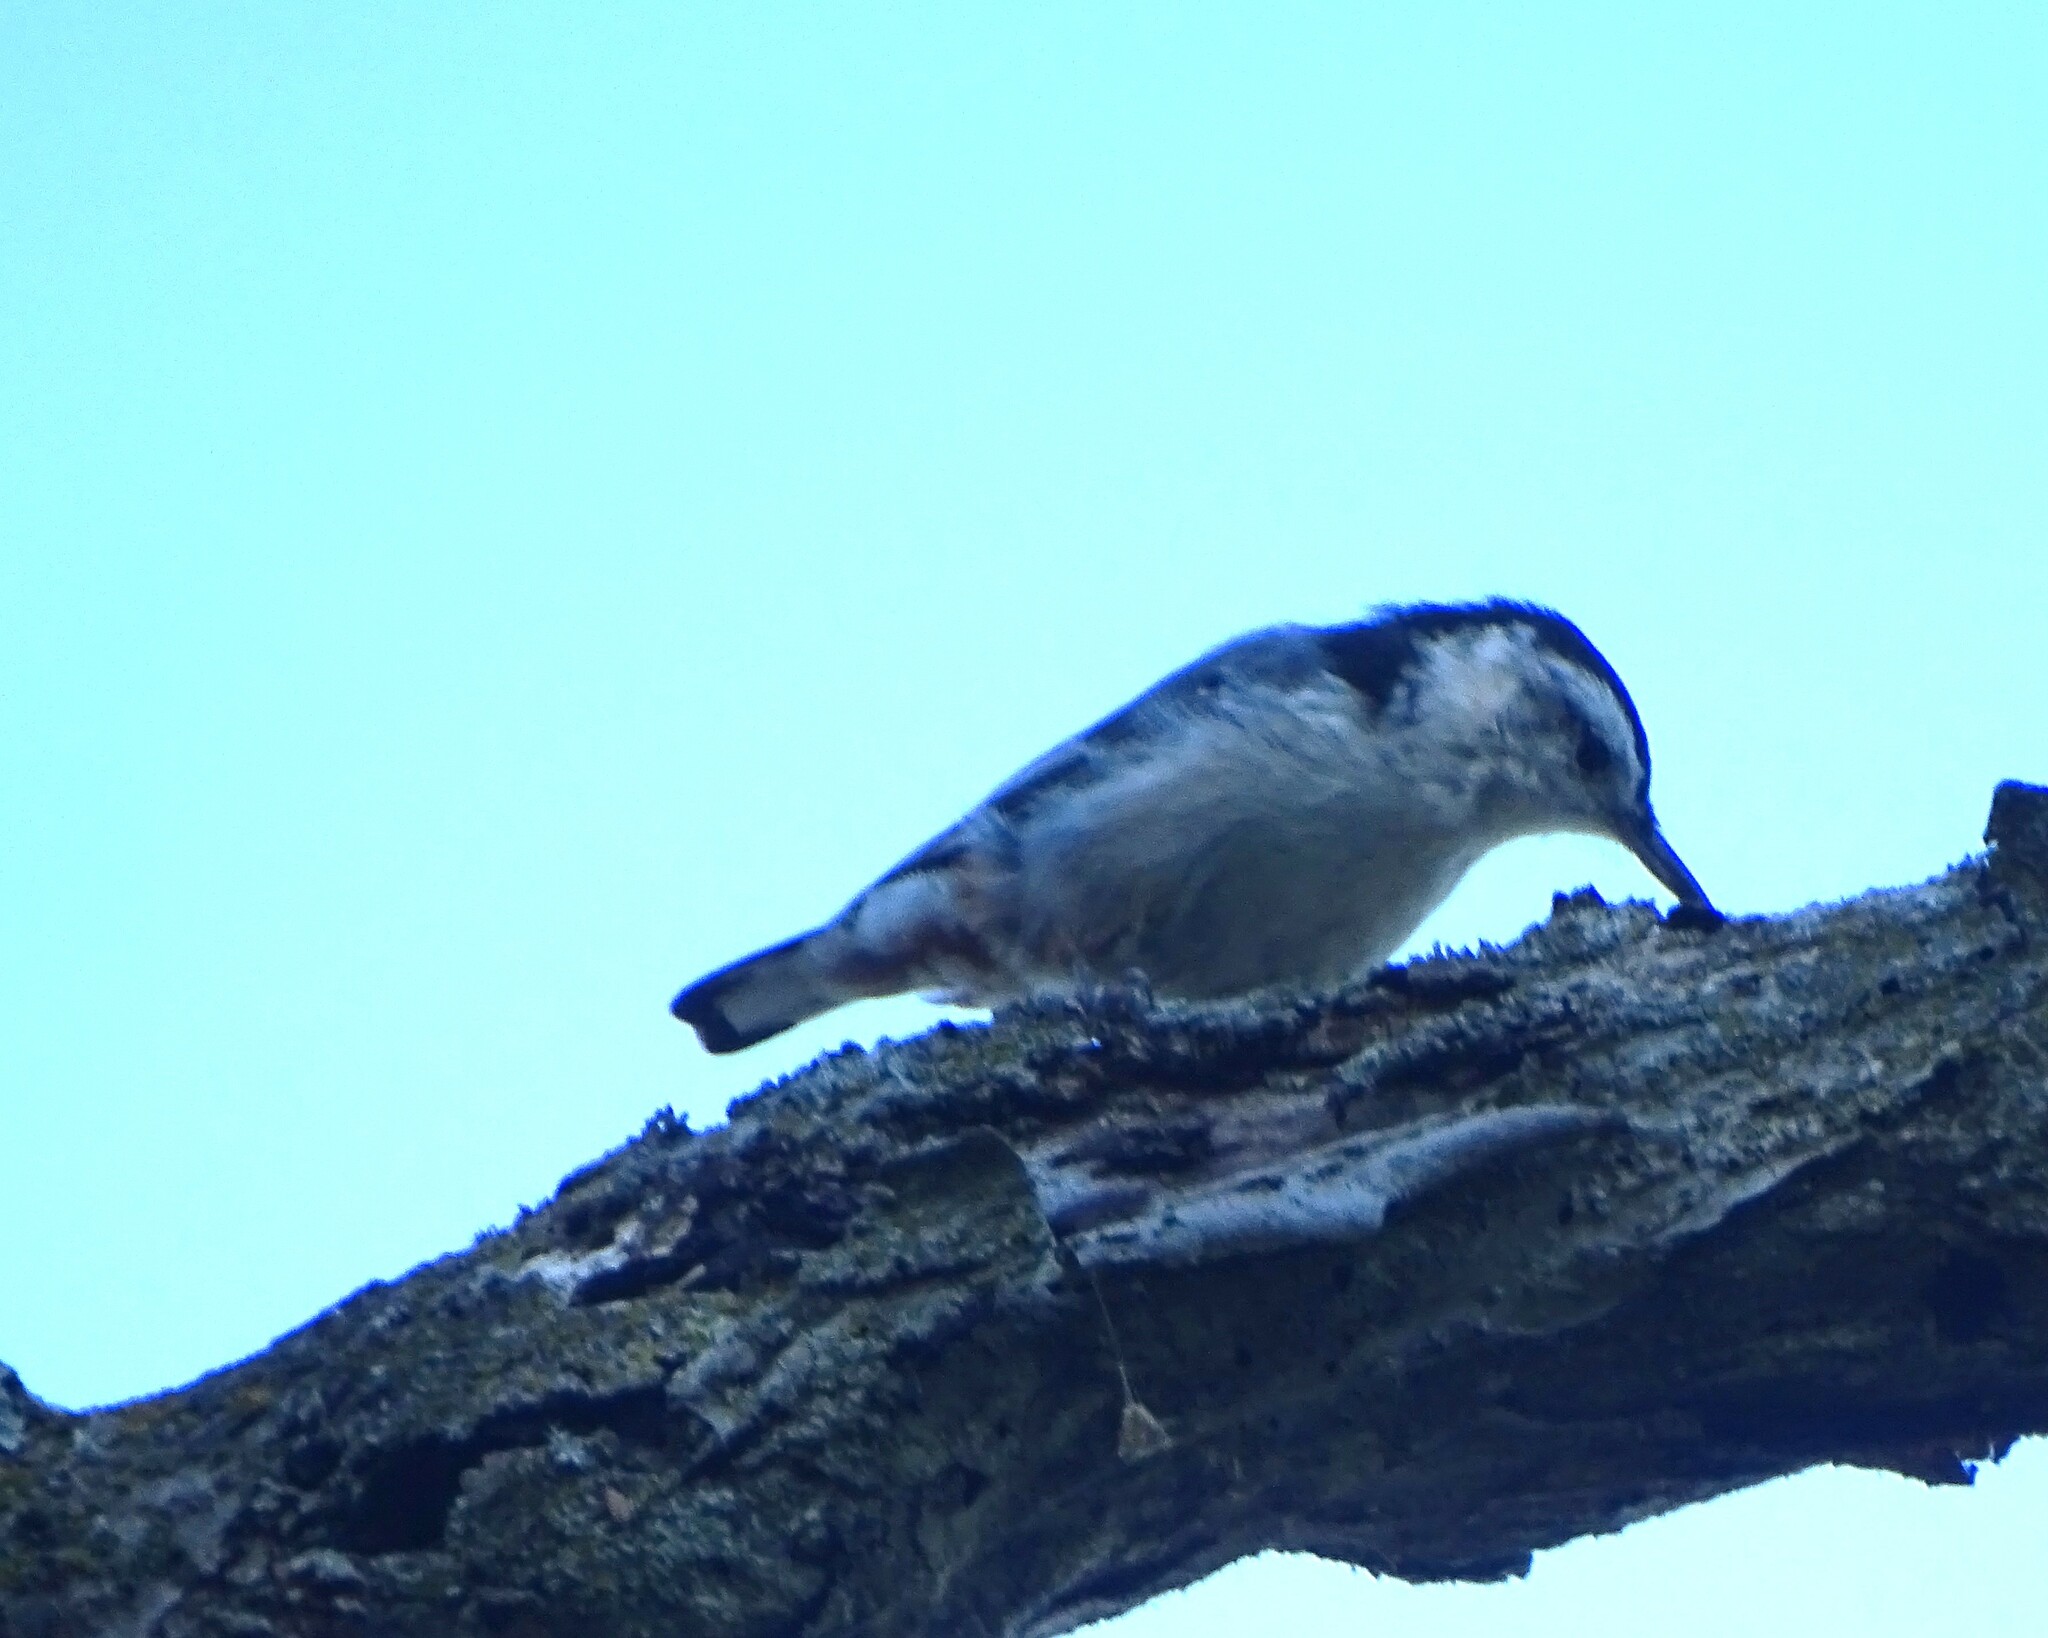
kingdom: Animalia
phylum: Chordata
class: Aves
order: Passeriformes
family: Sittidae
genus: Sitta
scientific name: Sitta carolinensis
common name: White-breasted nuthatch
